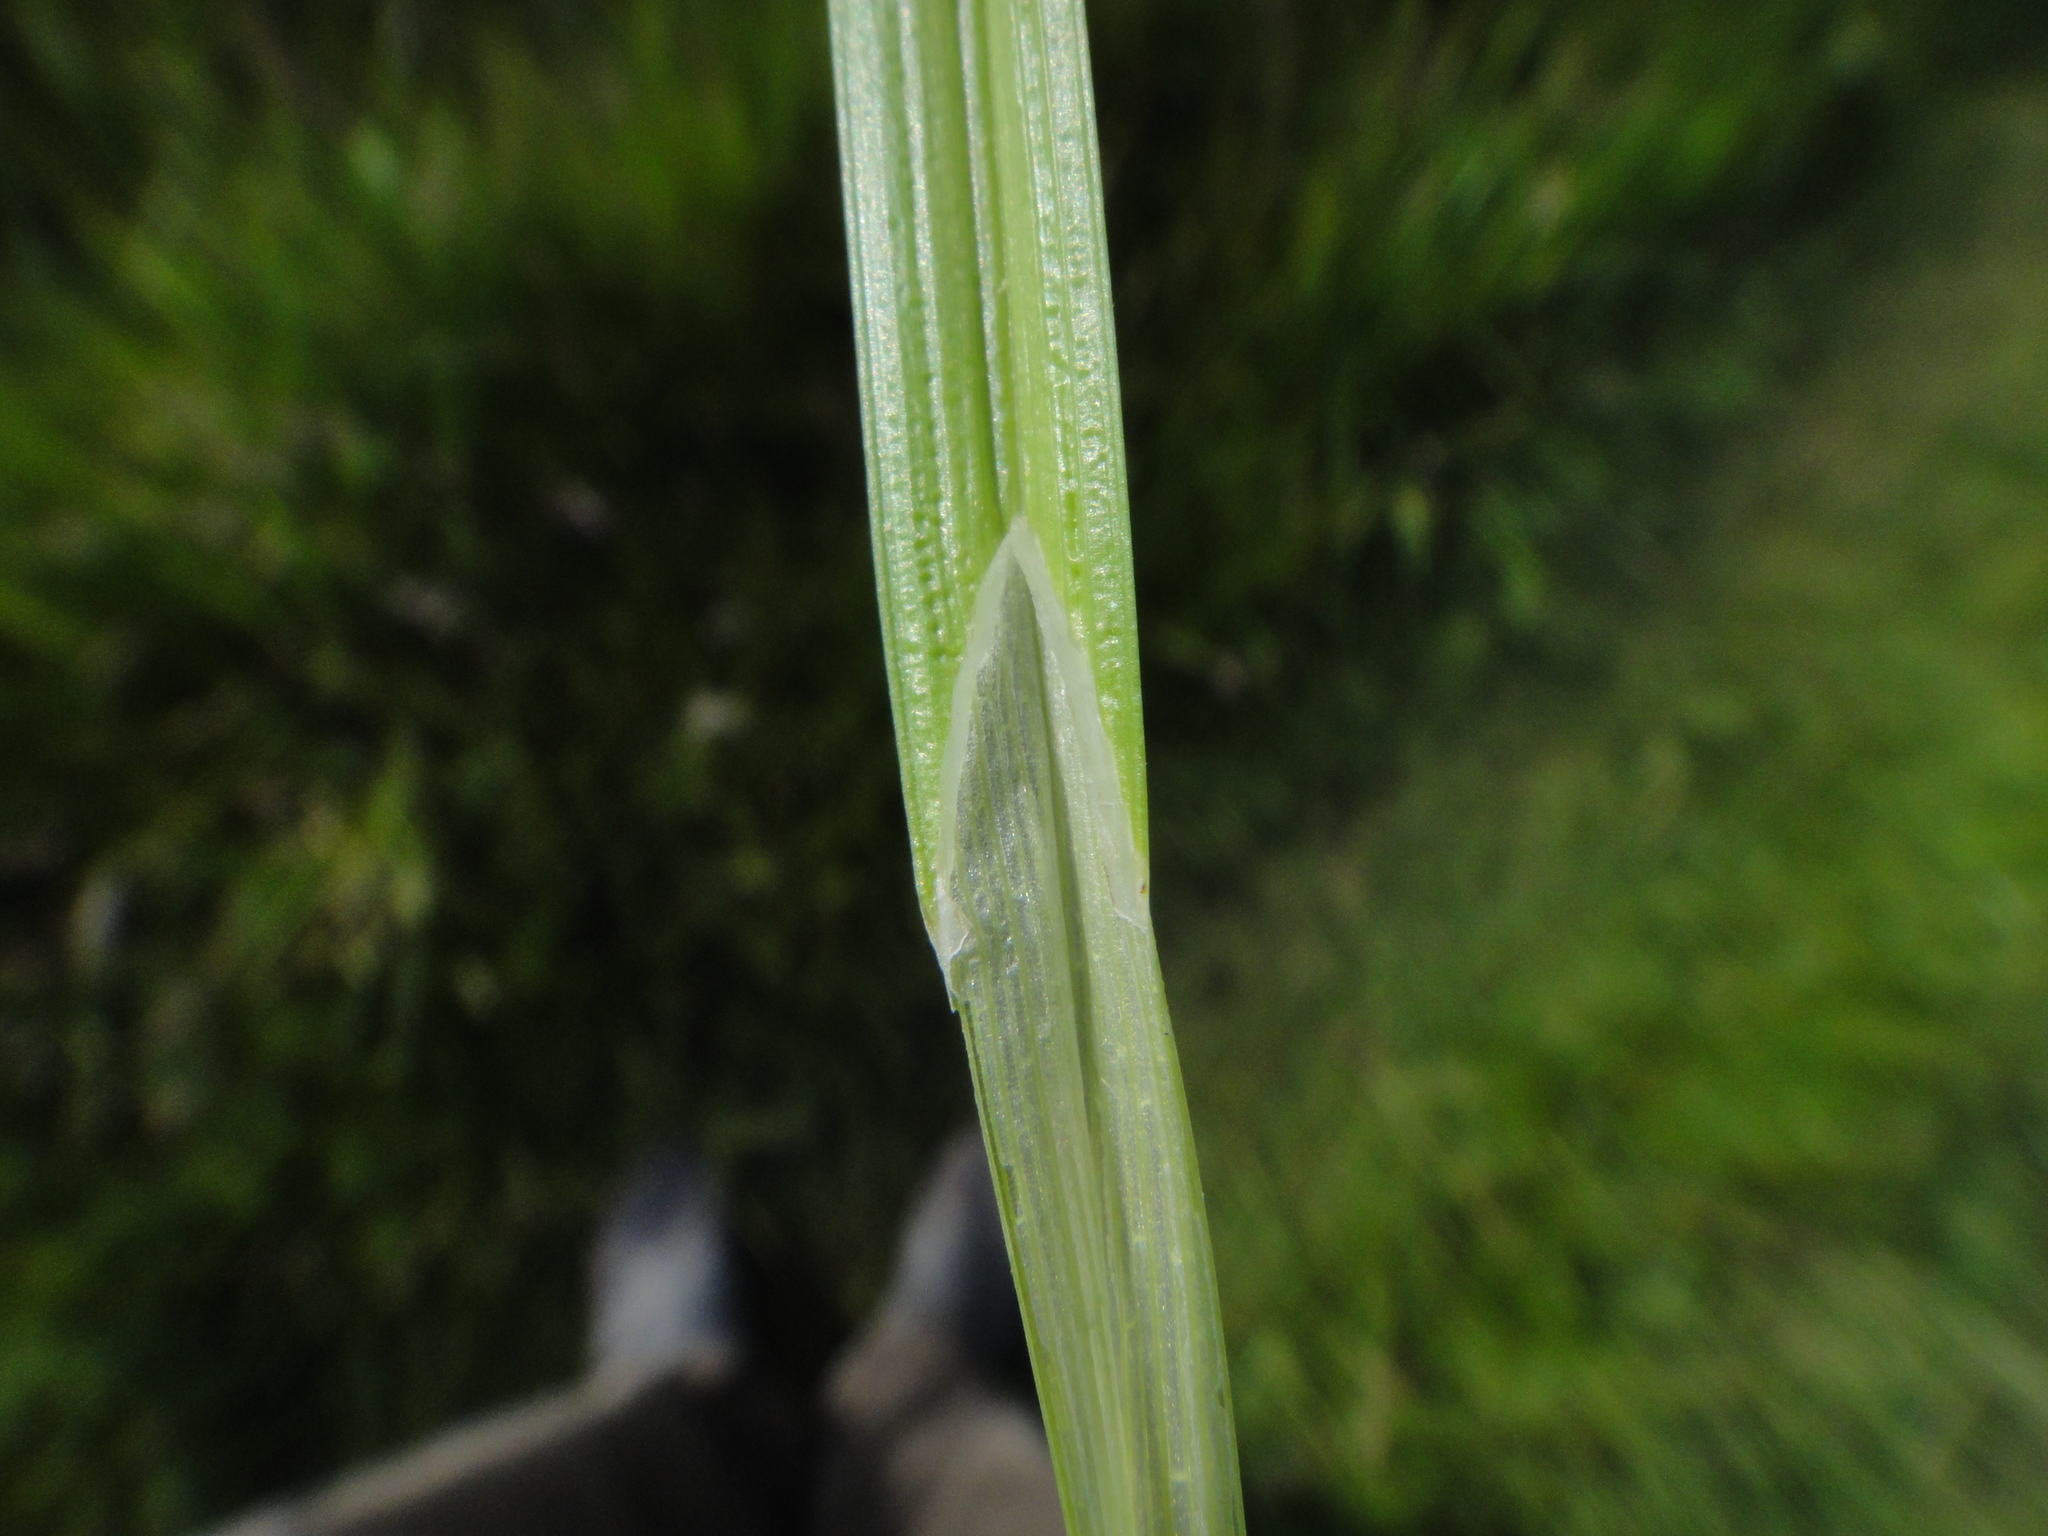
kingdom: Plantae
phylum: Tracheophyta
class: Liliopsida
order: Poales
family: Cyperaceae
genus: Carex
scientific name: Carex otrubae
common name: False fox-sedge
